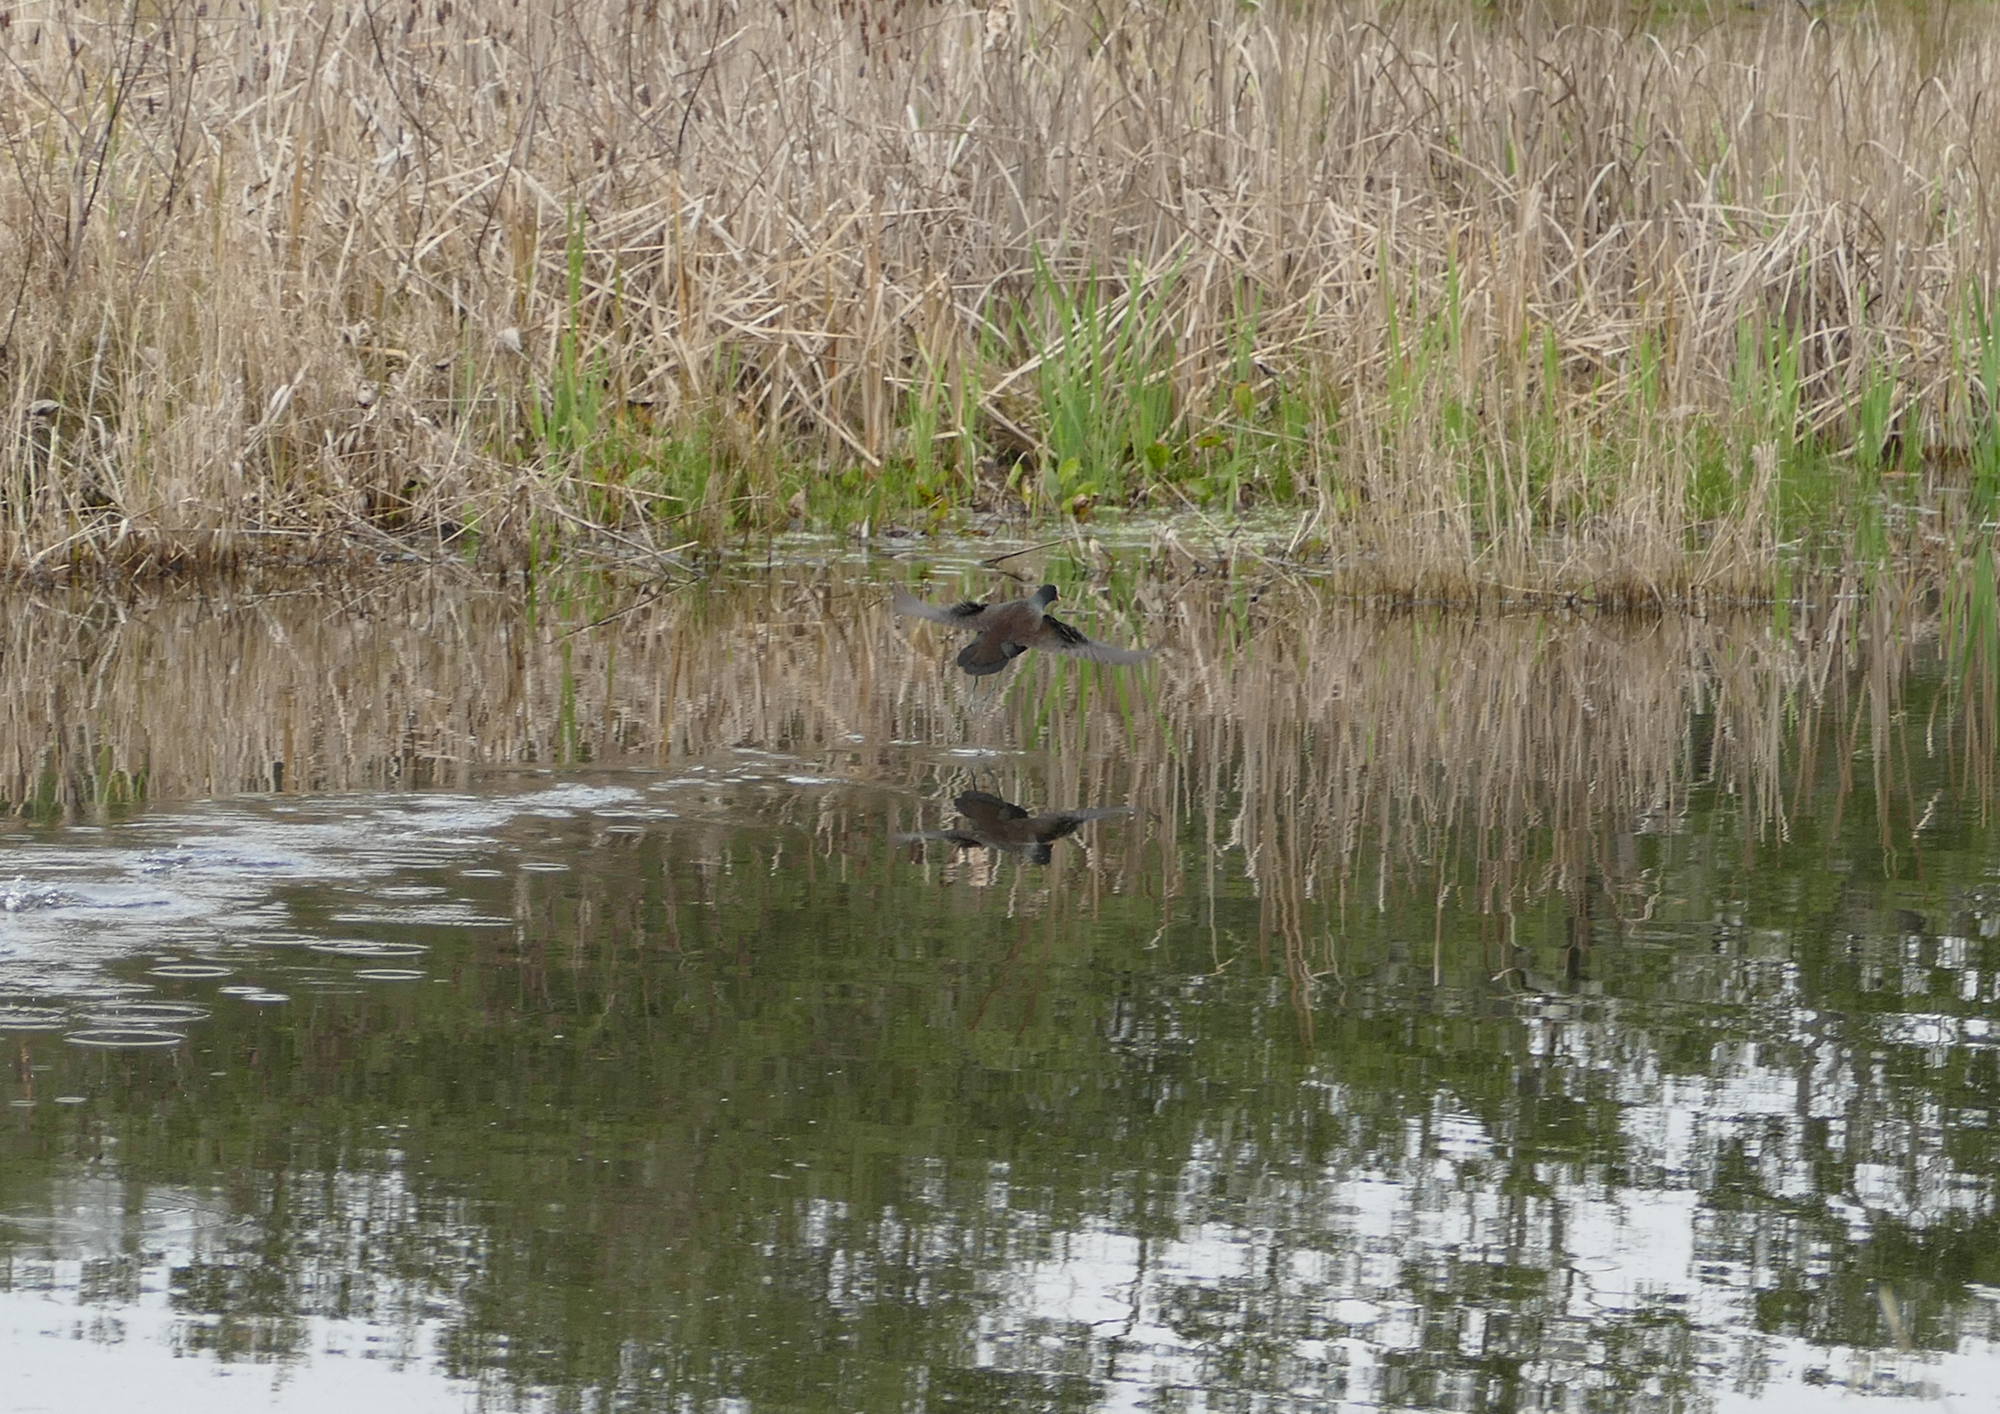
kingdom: Animalia
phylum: Chordata
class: Aves
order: Gruiformes
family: Rallidae
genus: Gallinula
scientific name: Gallinula chloropus
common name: Common moorhen
